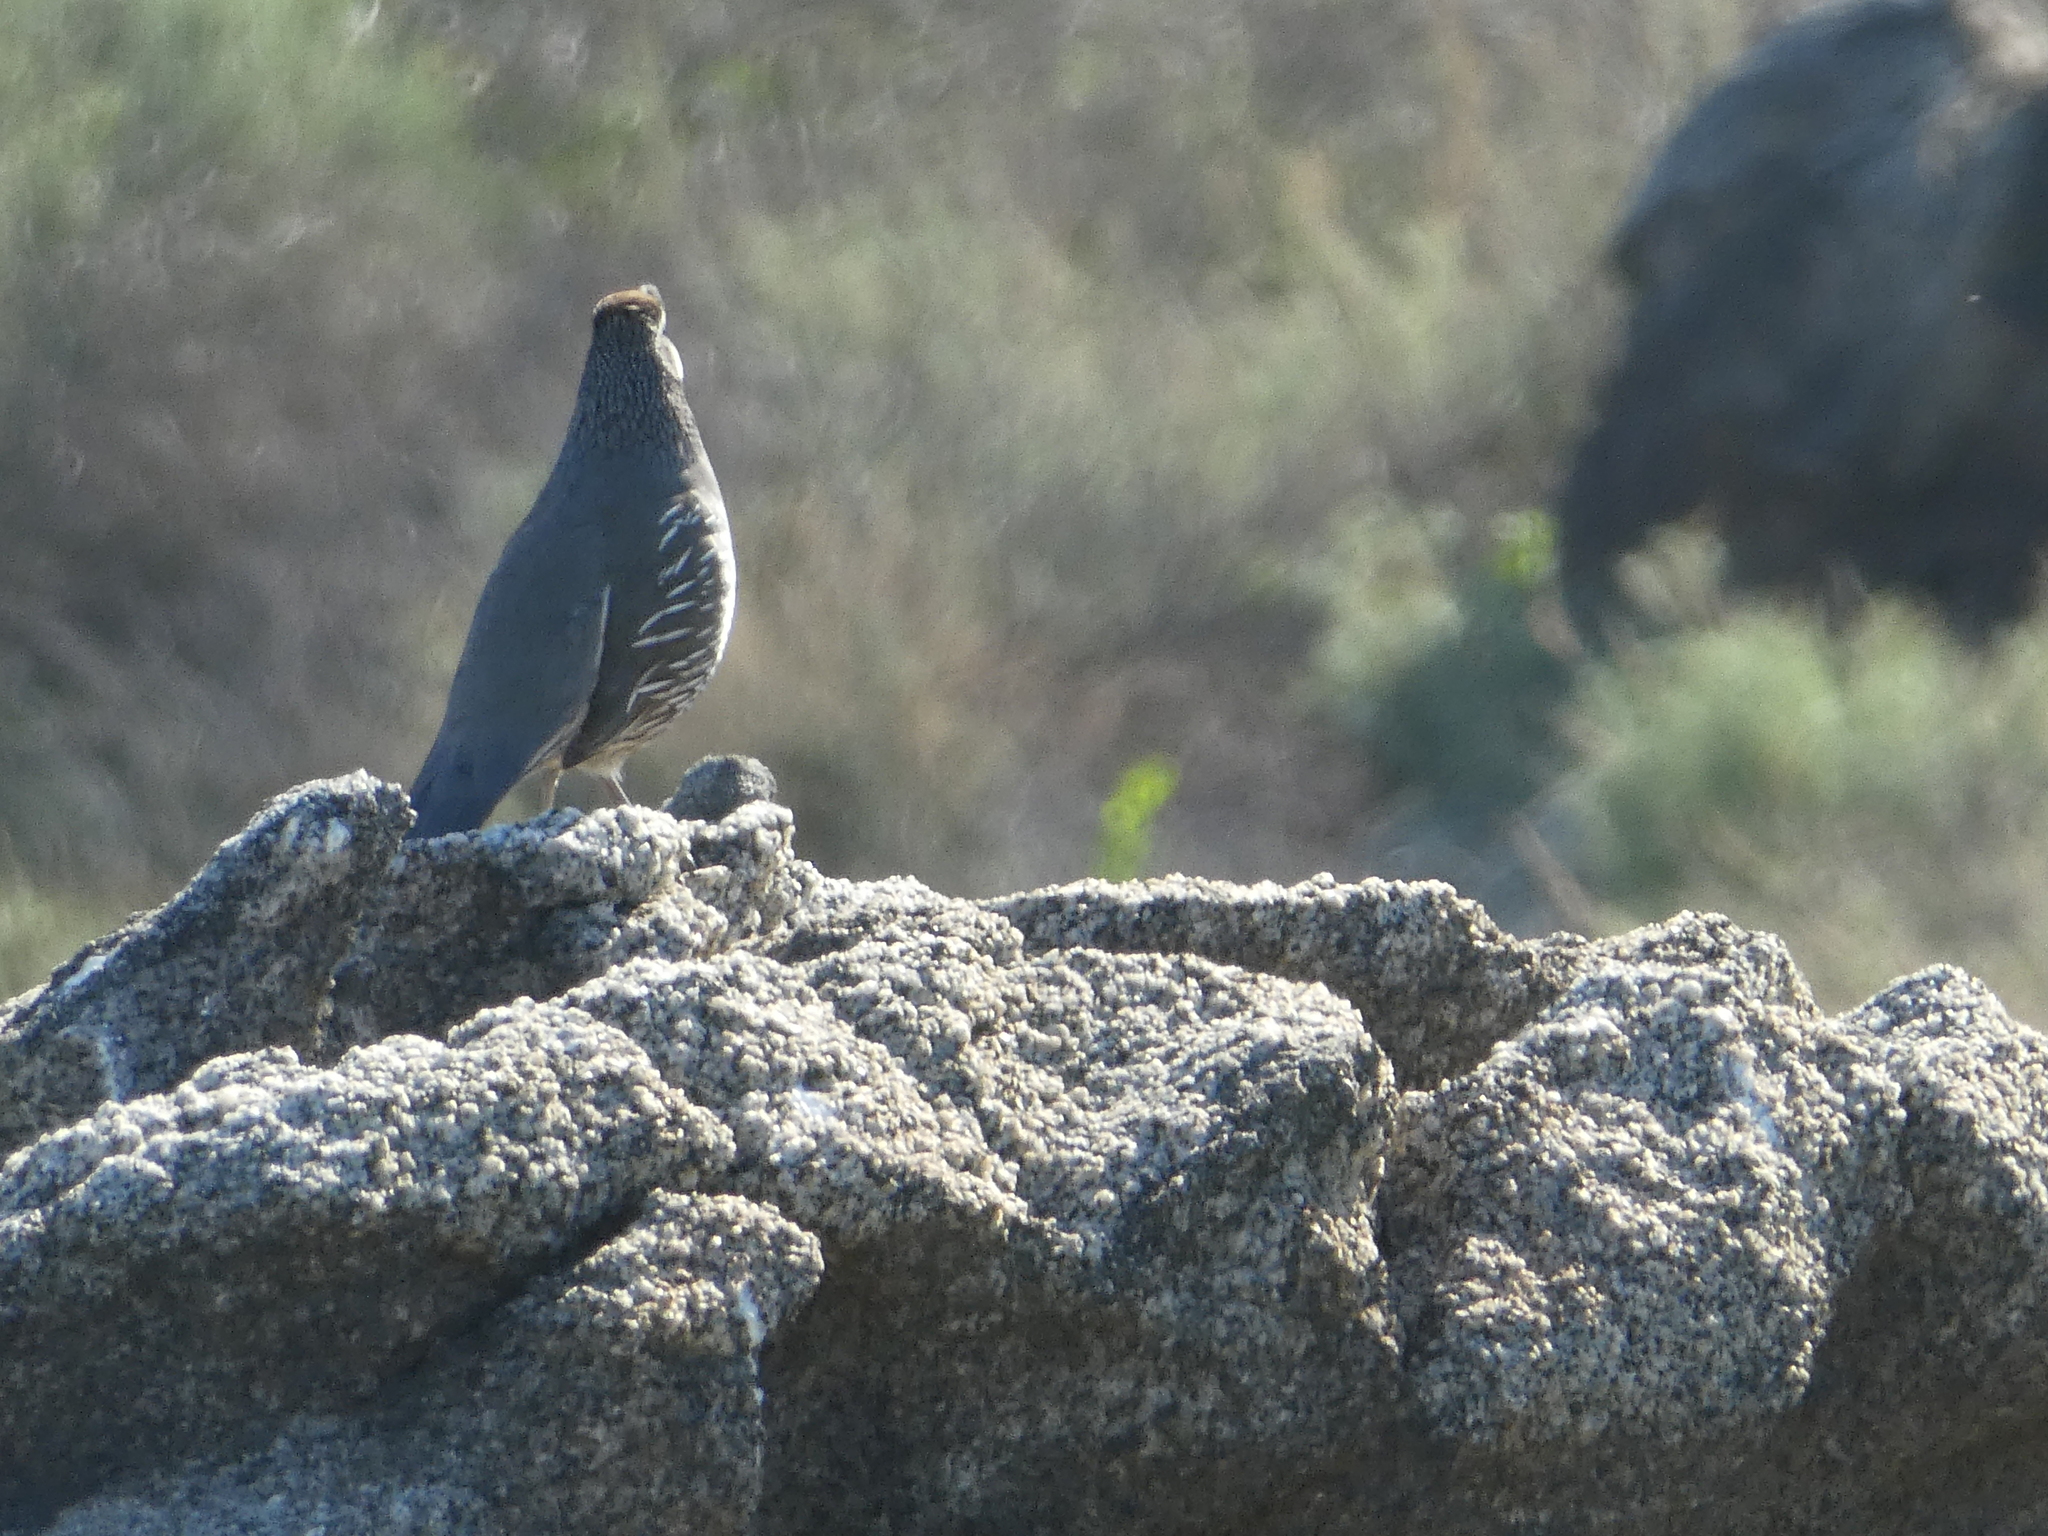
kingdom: Animalia
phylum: Chordata
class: Aves
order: Galliformes
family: Odontophoridae
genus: Callipepla
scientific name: Callipepla californica
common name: California quail
